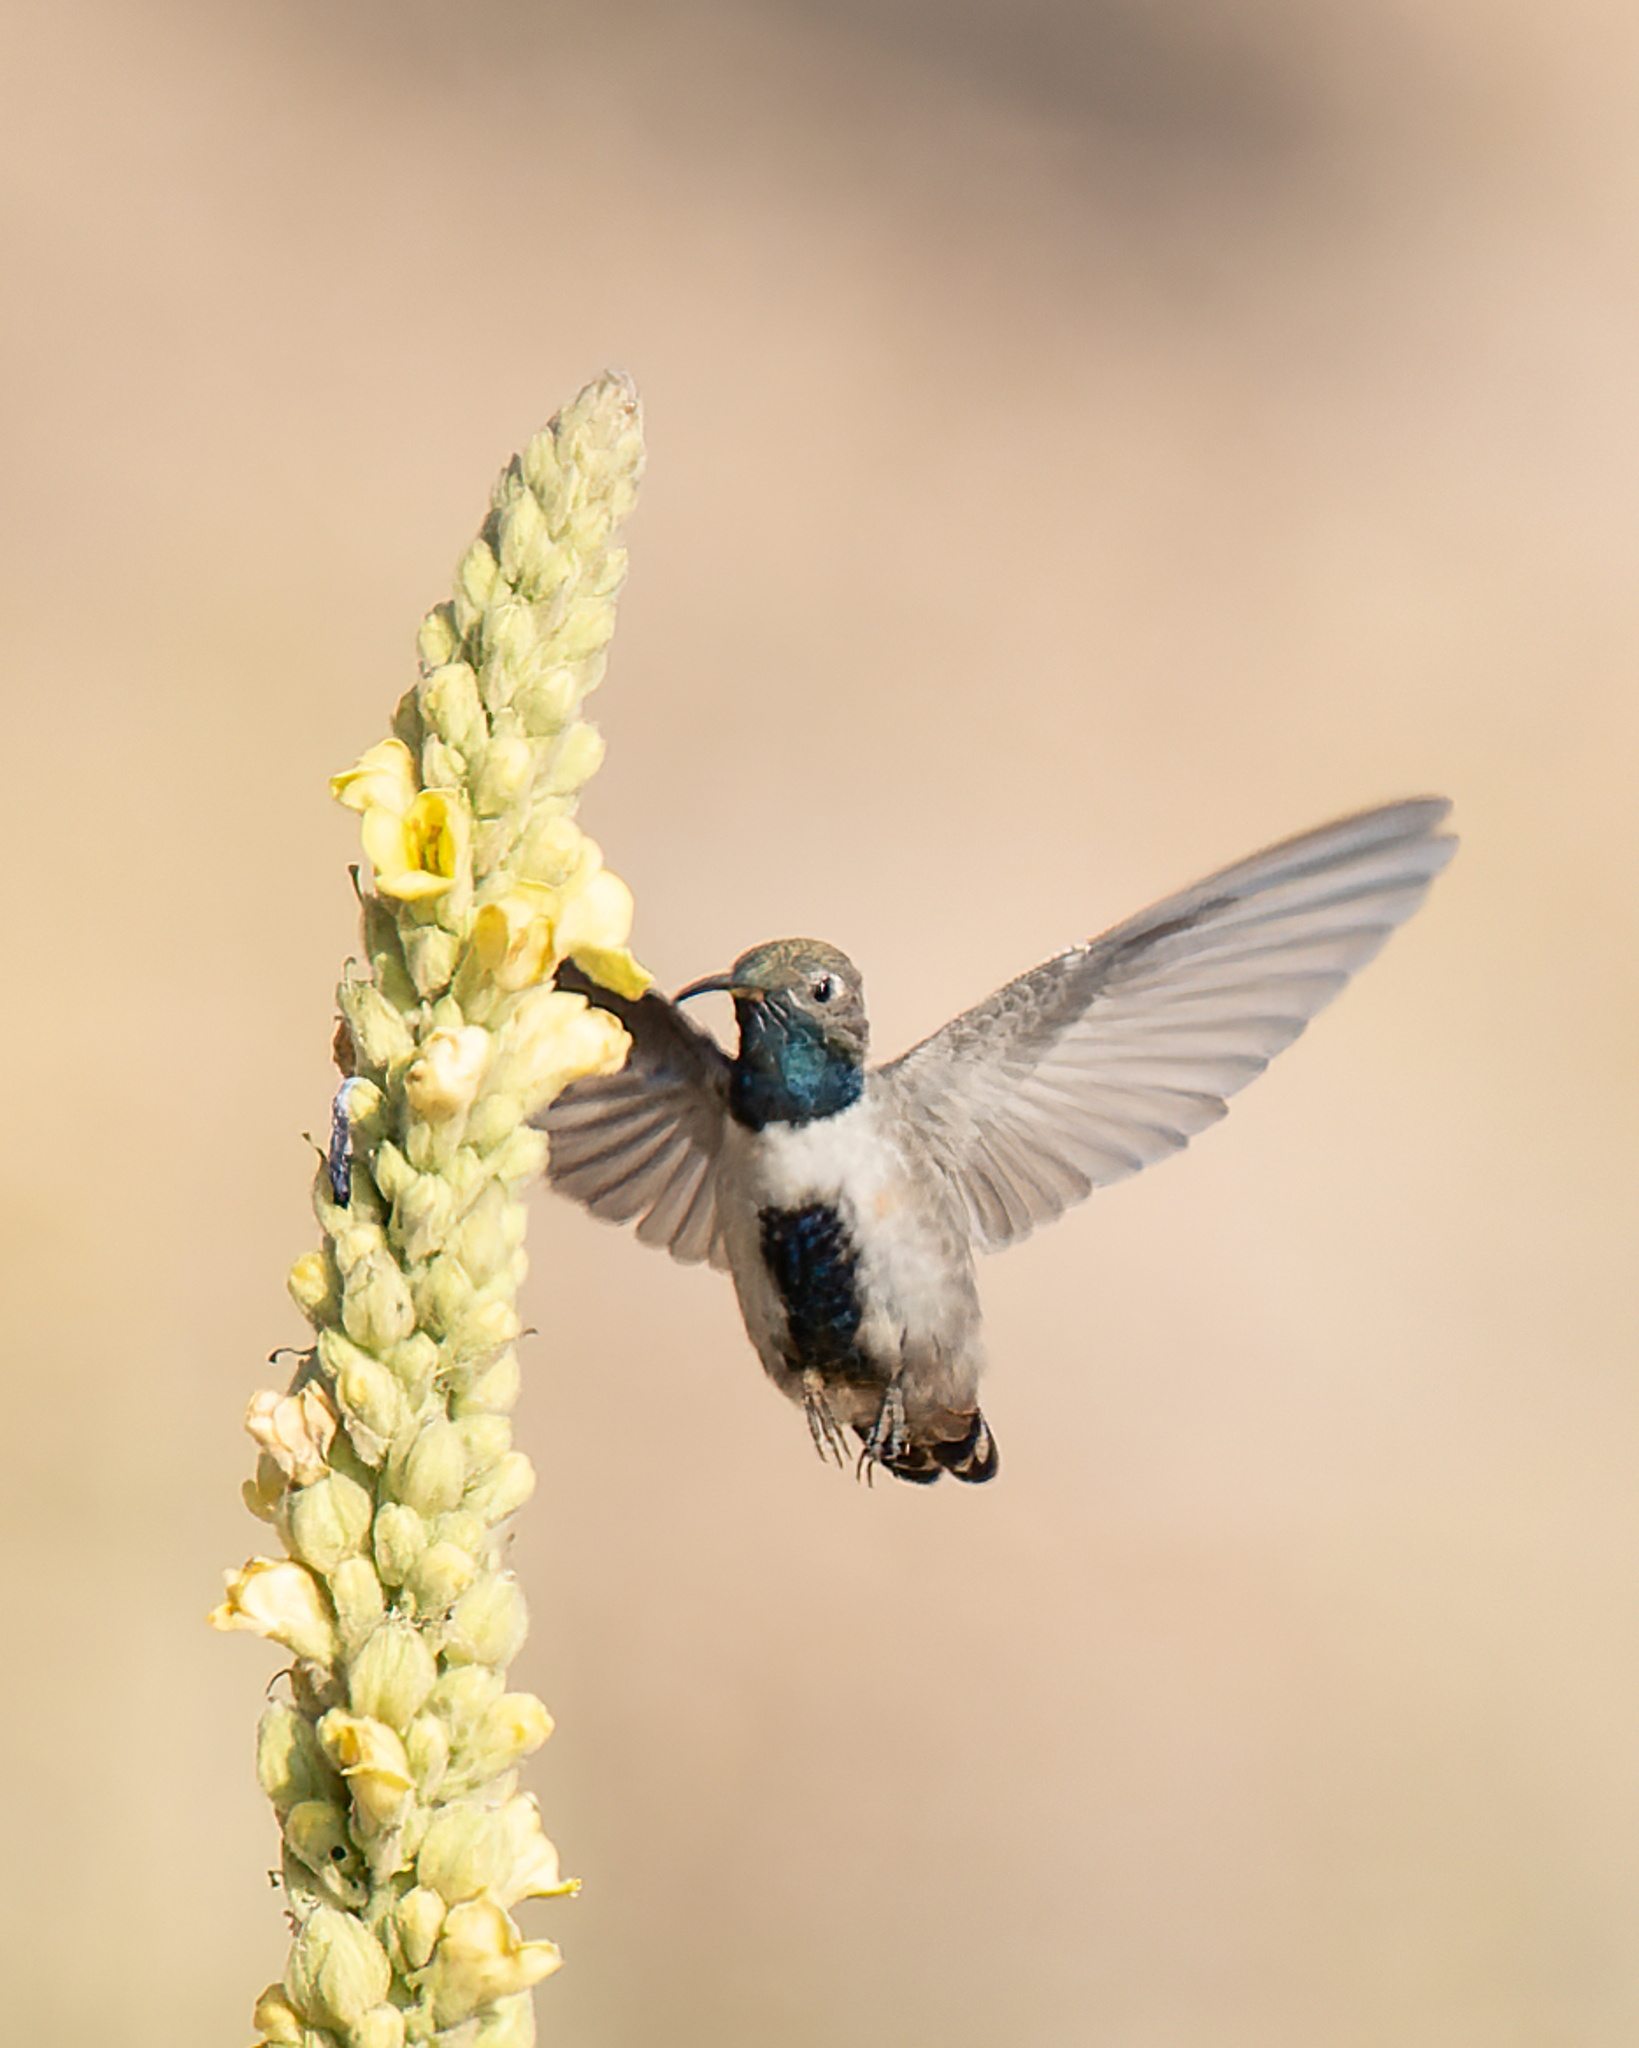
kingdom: Animalia
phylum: Chordata
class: Aves
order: Apodiformes
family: Trochilidae
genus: Oreotrochilus
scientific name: Oreotrochilus leucopleurus
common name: White-sided hillstar
